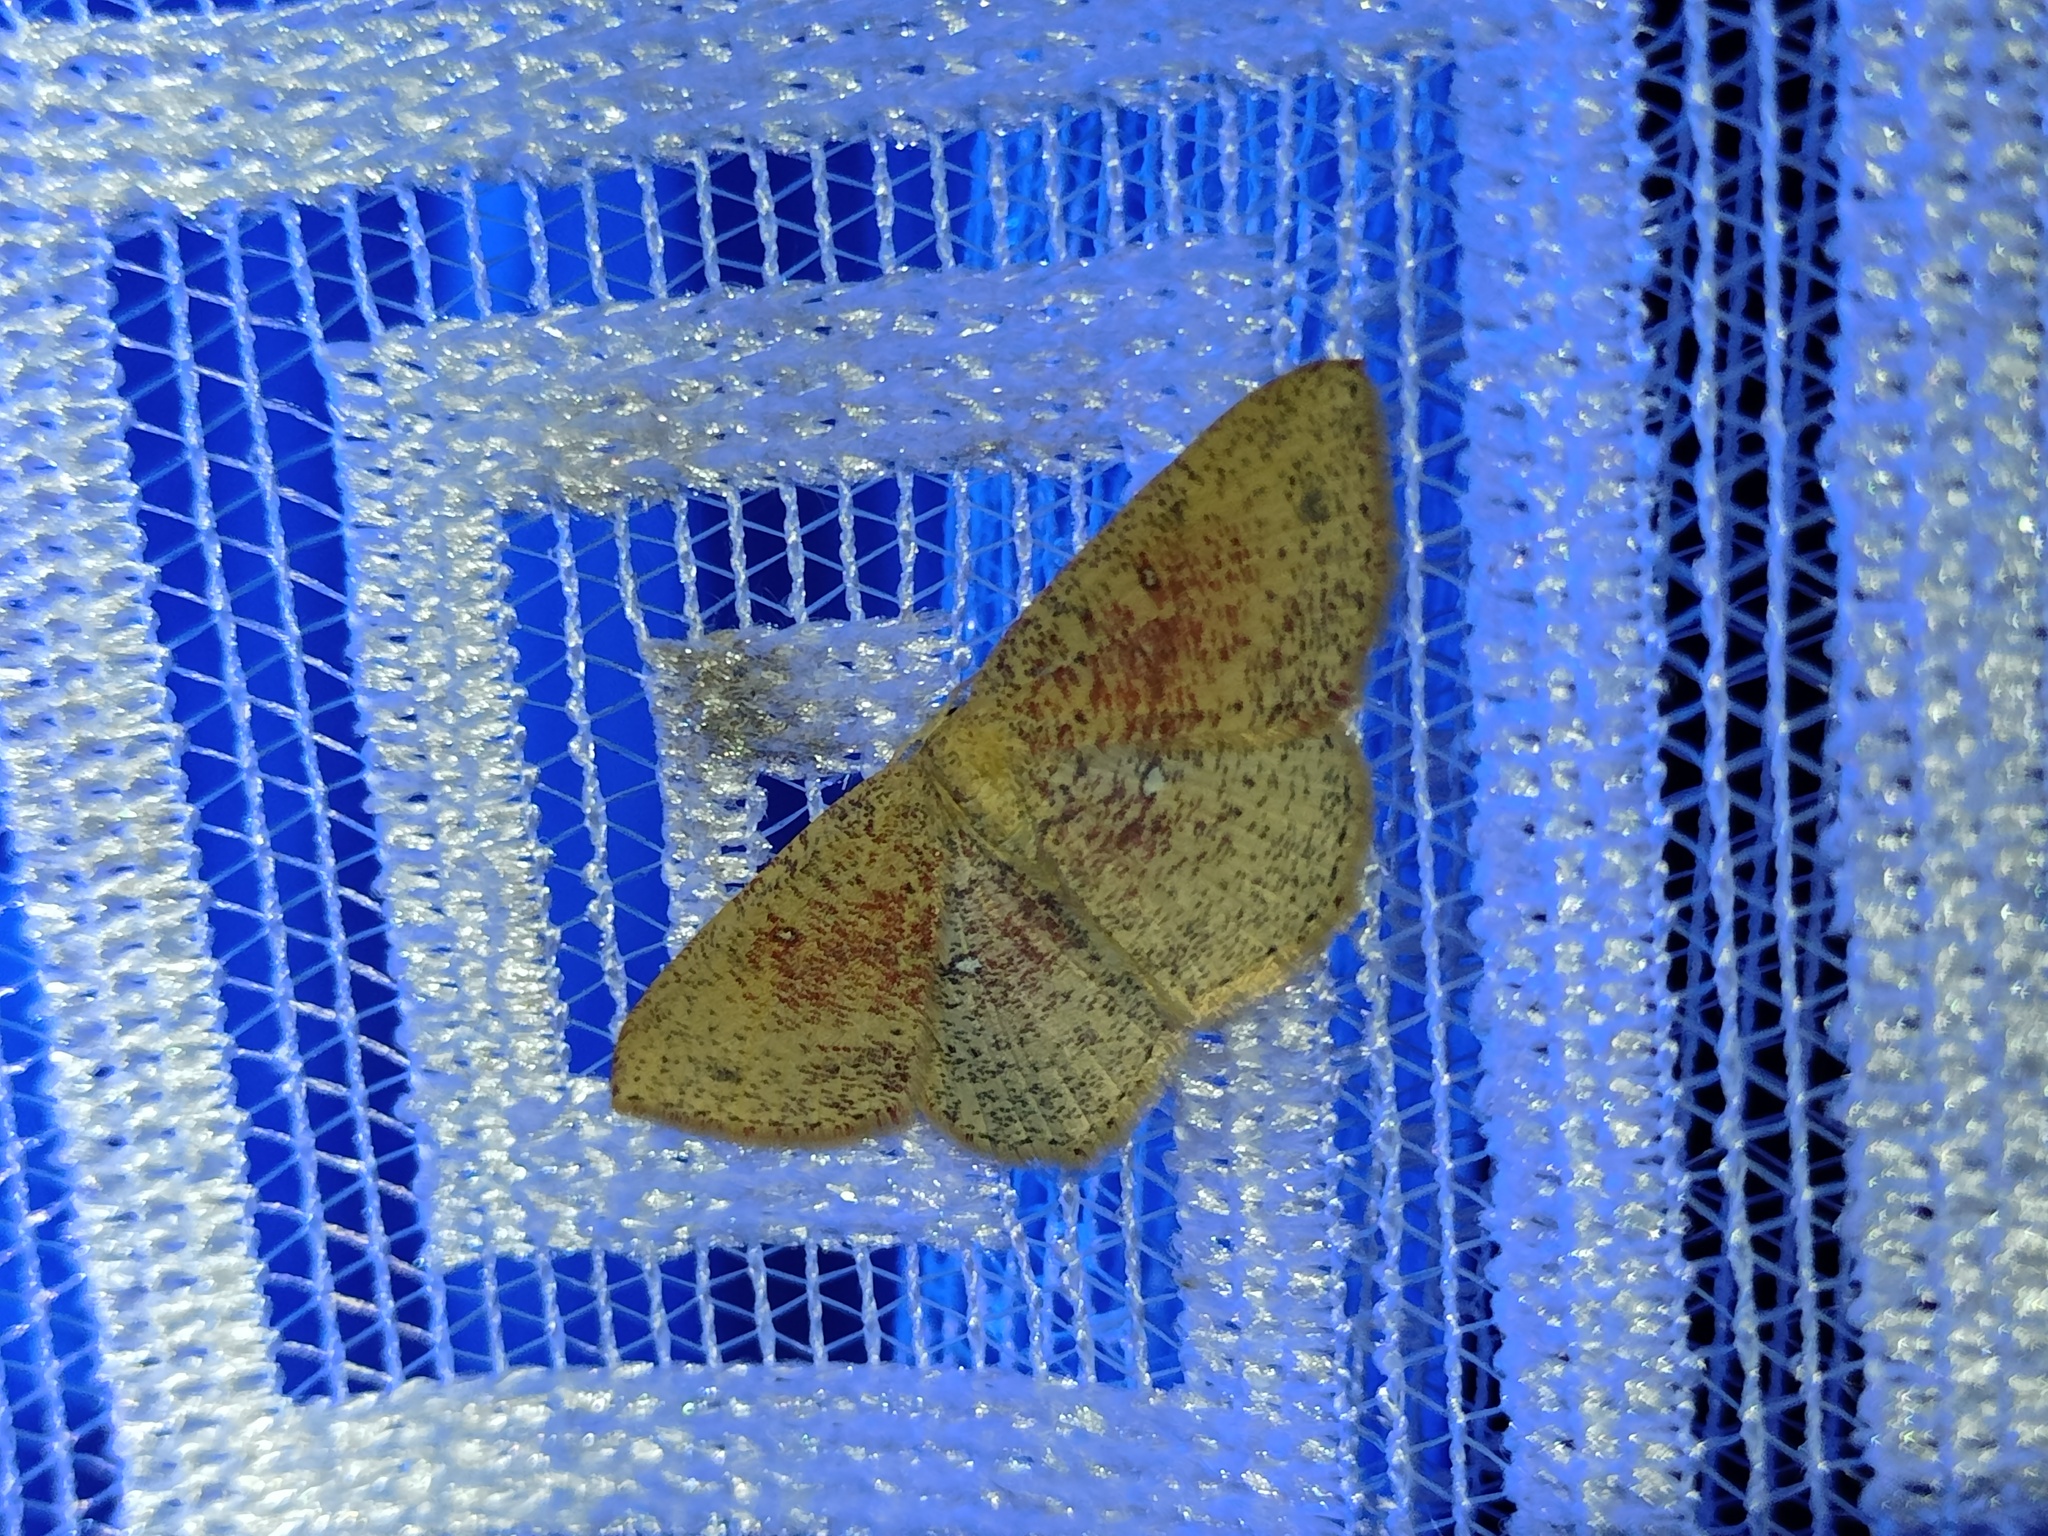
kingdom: Animalia
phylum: Arthropoda
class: Insecta
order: Lepidoptera
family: Geometridae
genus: Cyclophora
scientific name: Cyclophora porata
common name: False mocha
